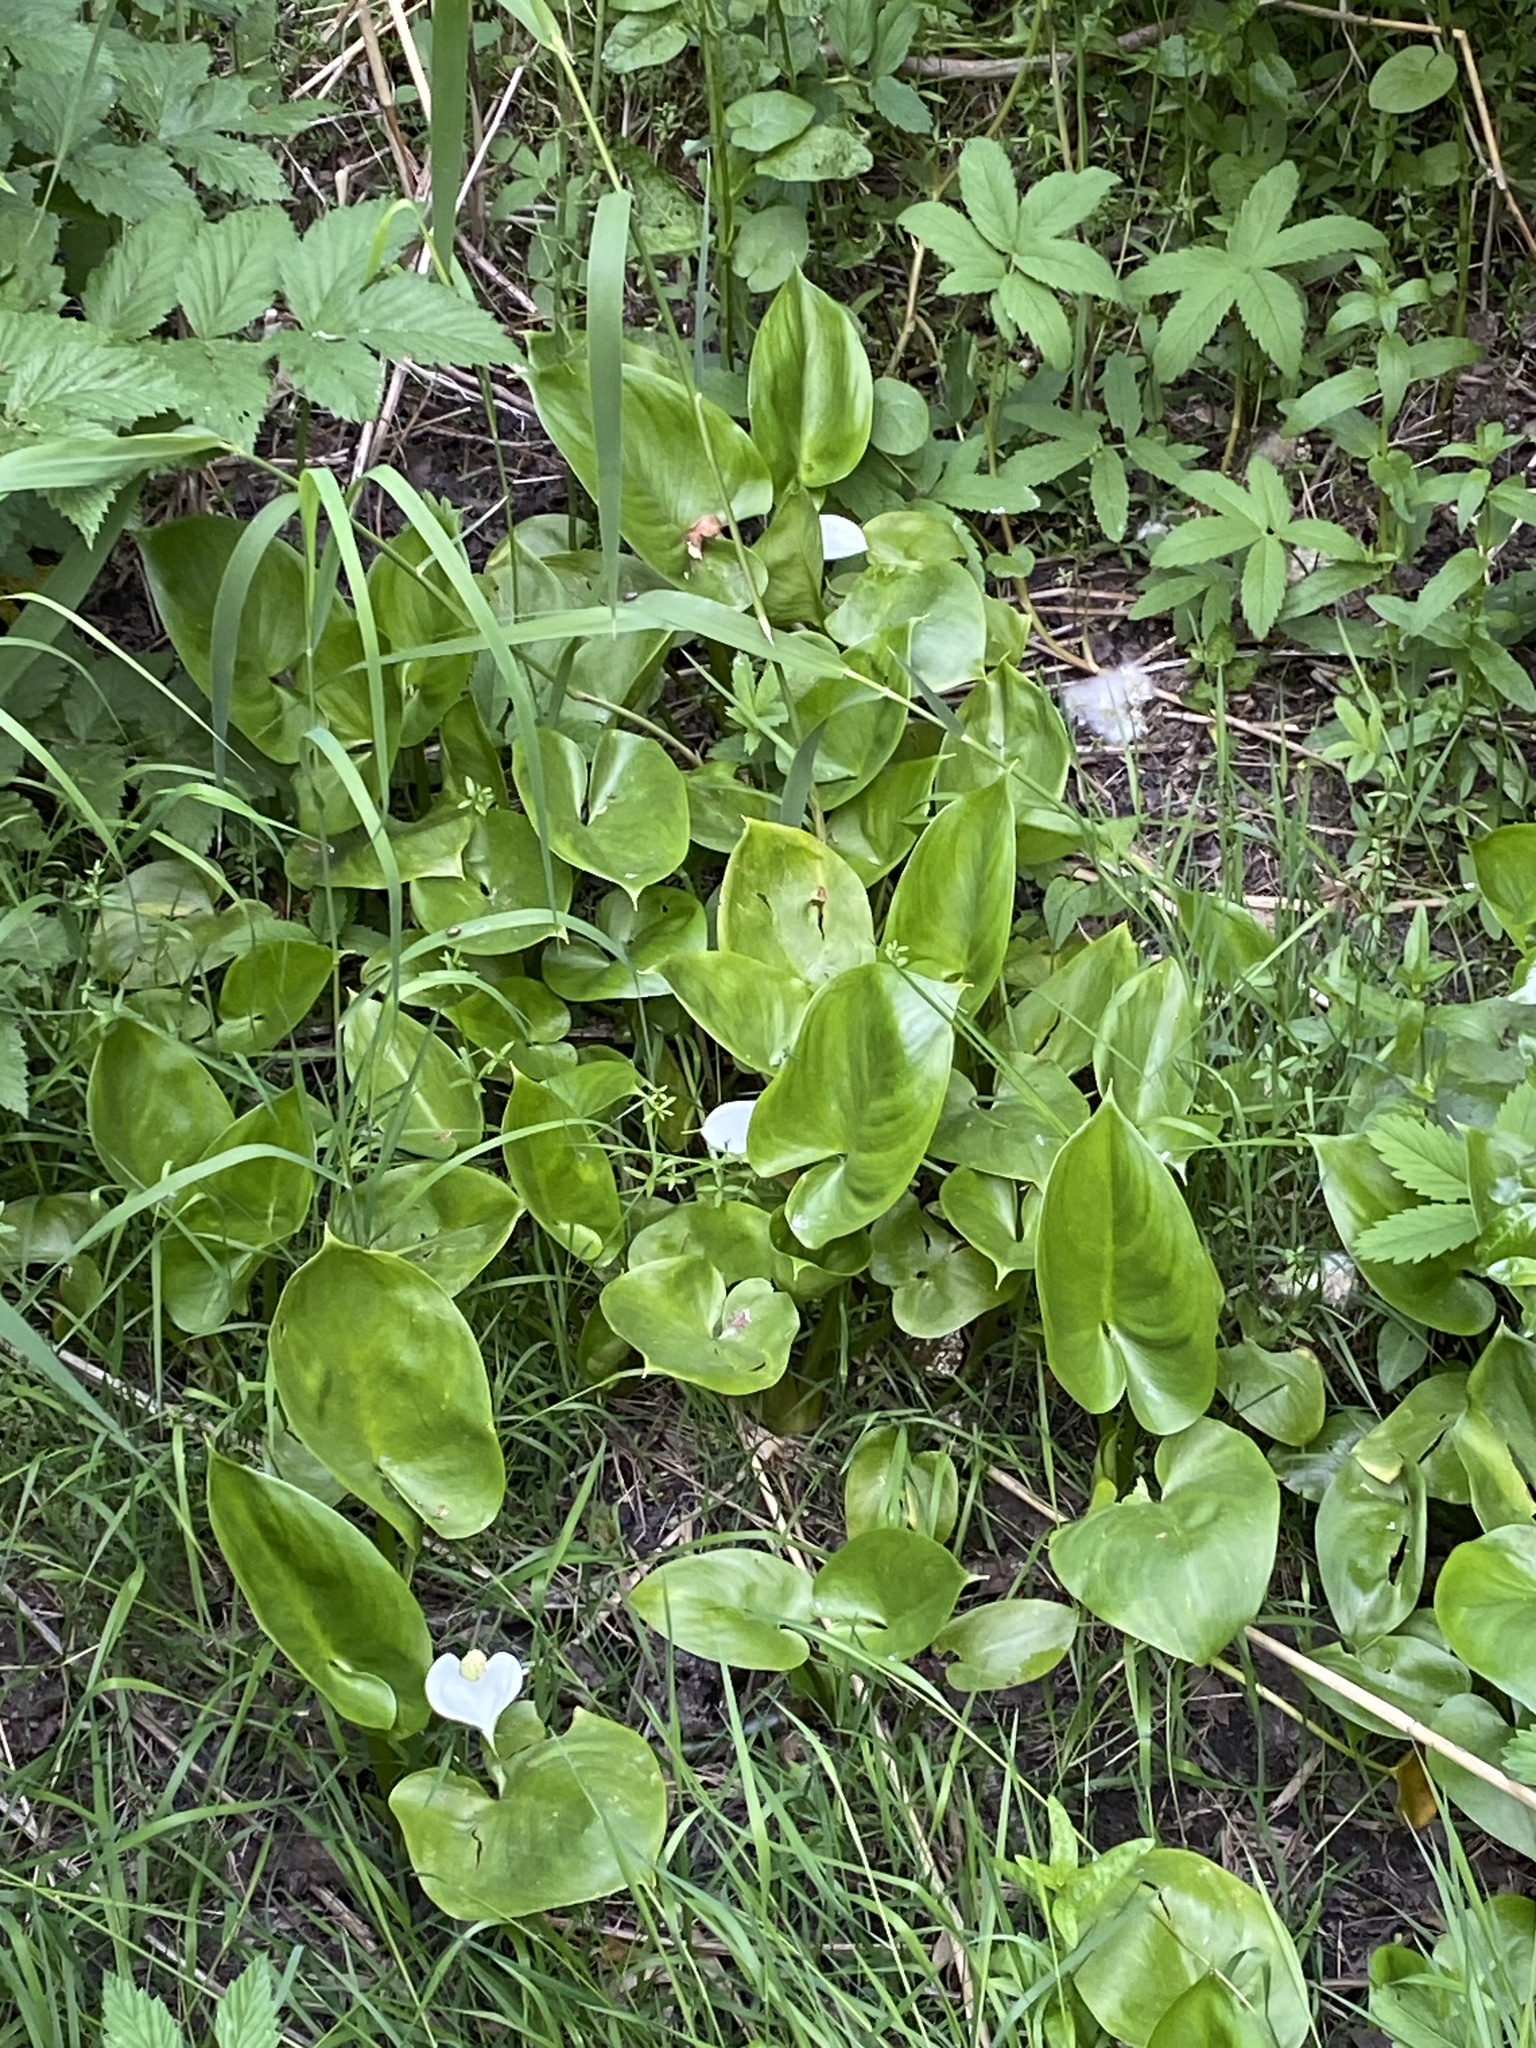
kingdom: Plantae
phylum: Tracheophyta
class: Liliopsida
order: Alismatales
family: Araceae
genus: Calla
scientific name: Calla palustris
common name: Bog arum
